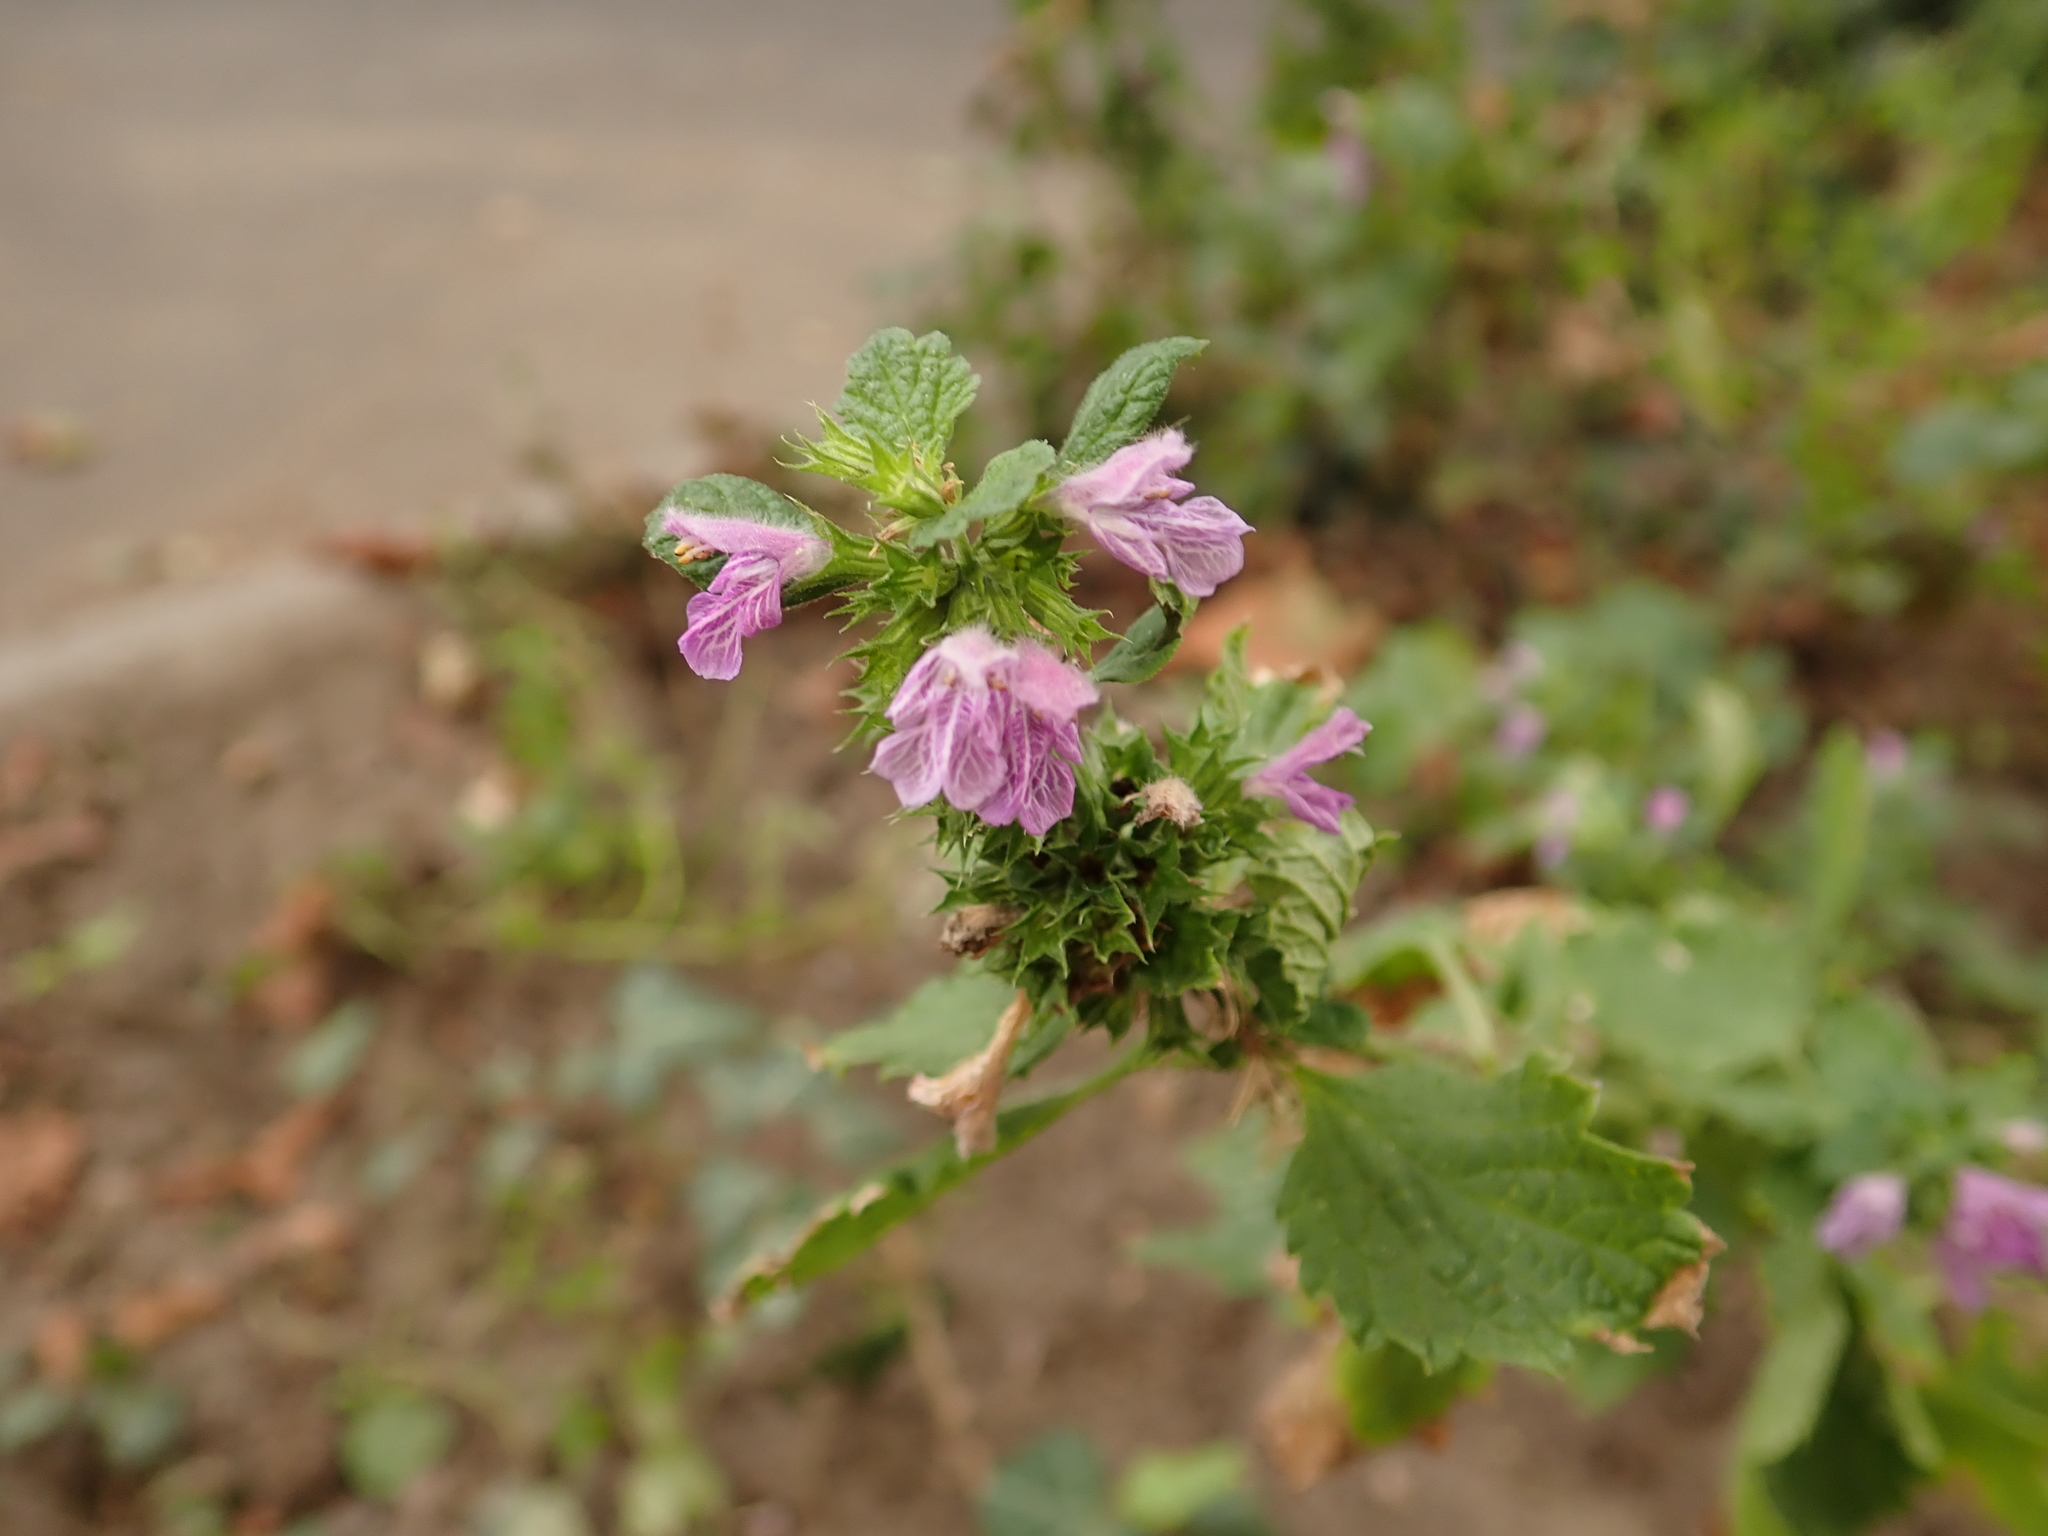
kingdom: Plantae
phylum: Tracheophyta
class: Magnoliopsida
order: Lamiales
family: Lamiaceae
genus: Ballota
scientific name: Ballota nigra
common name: Black horehound
